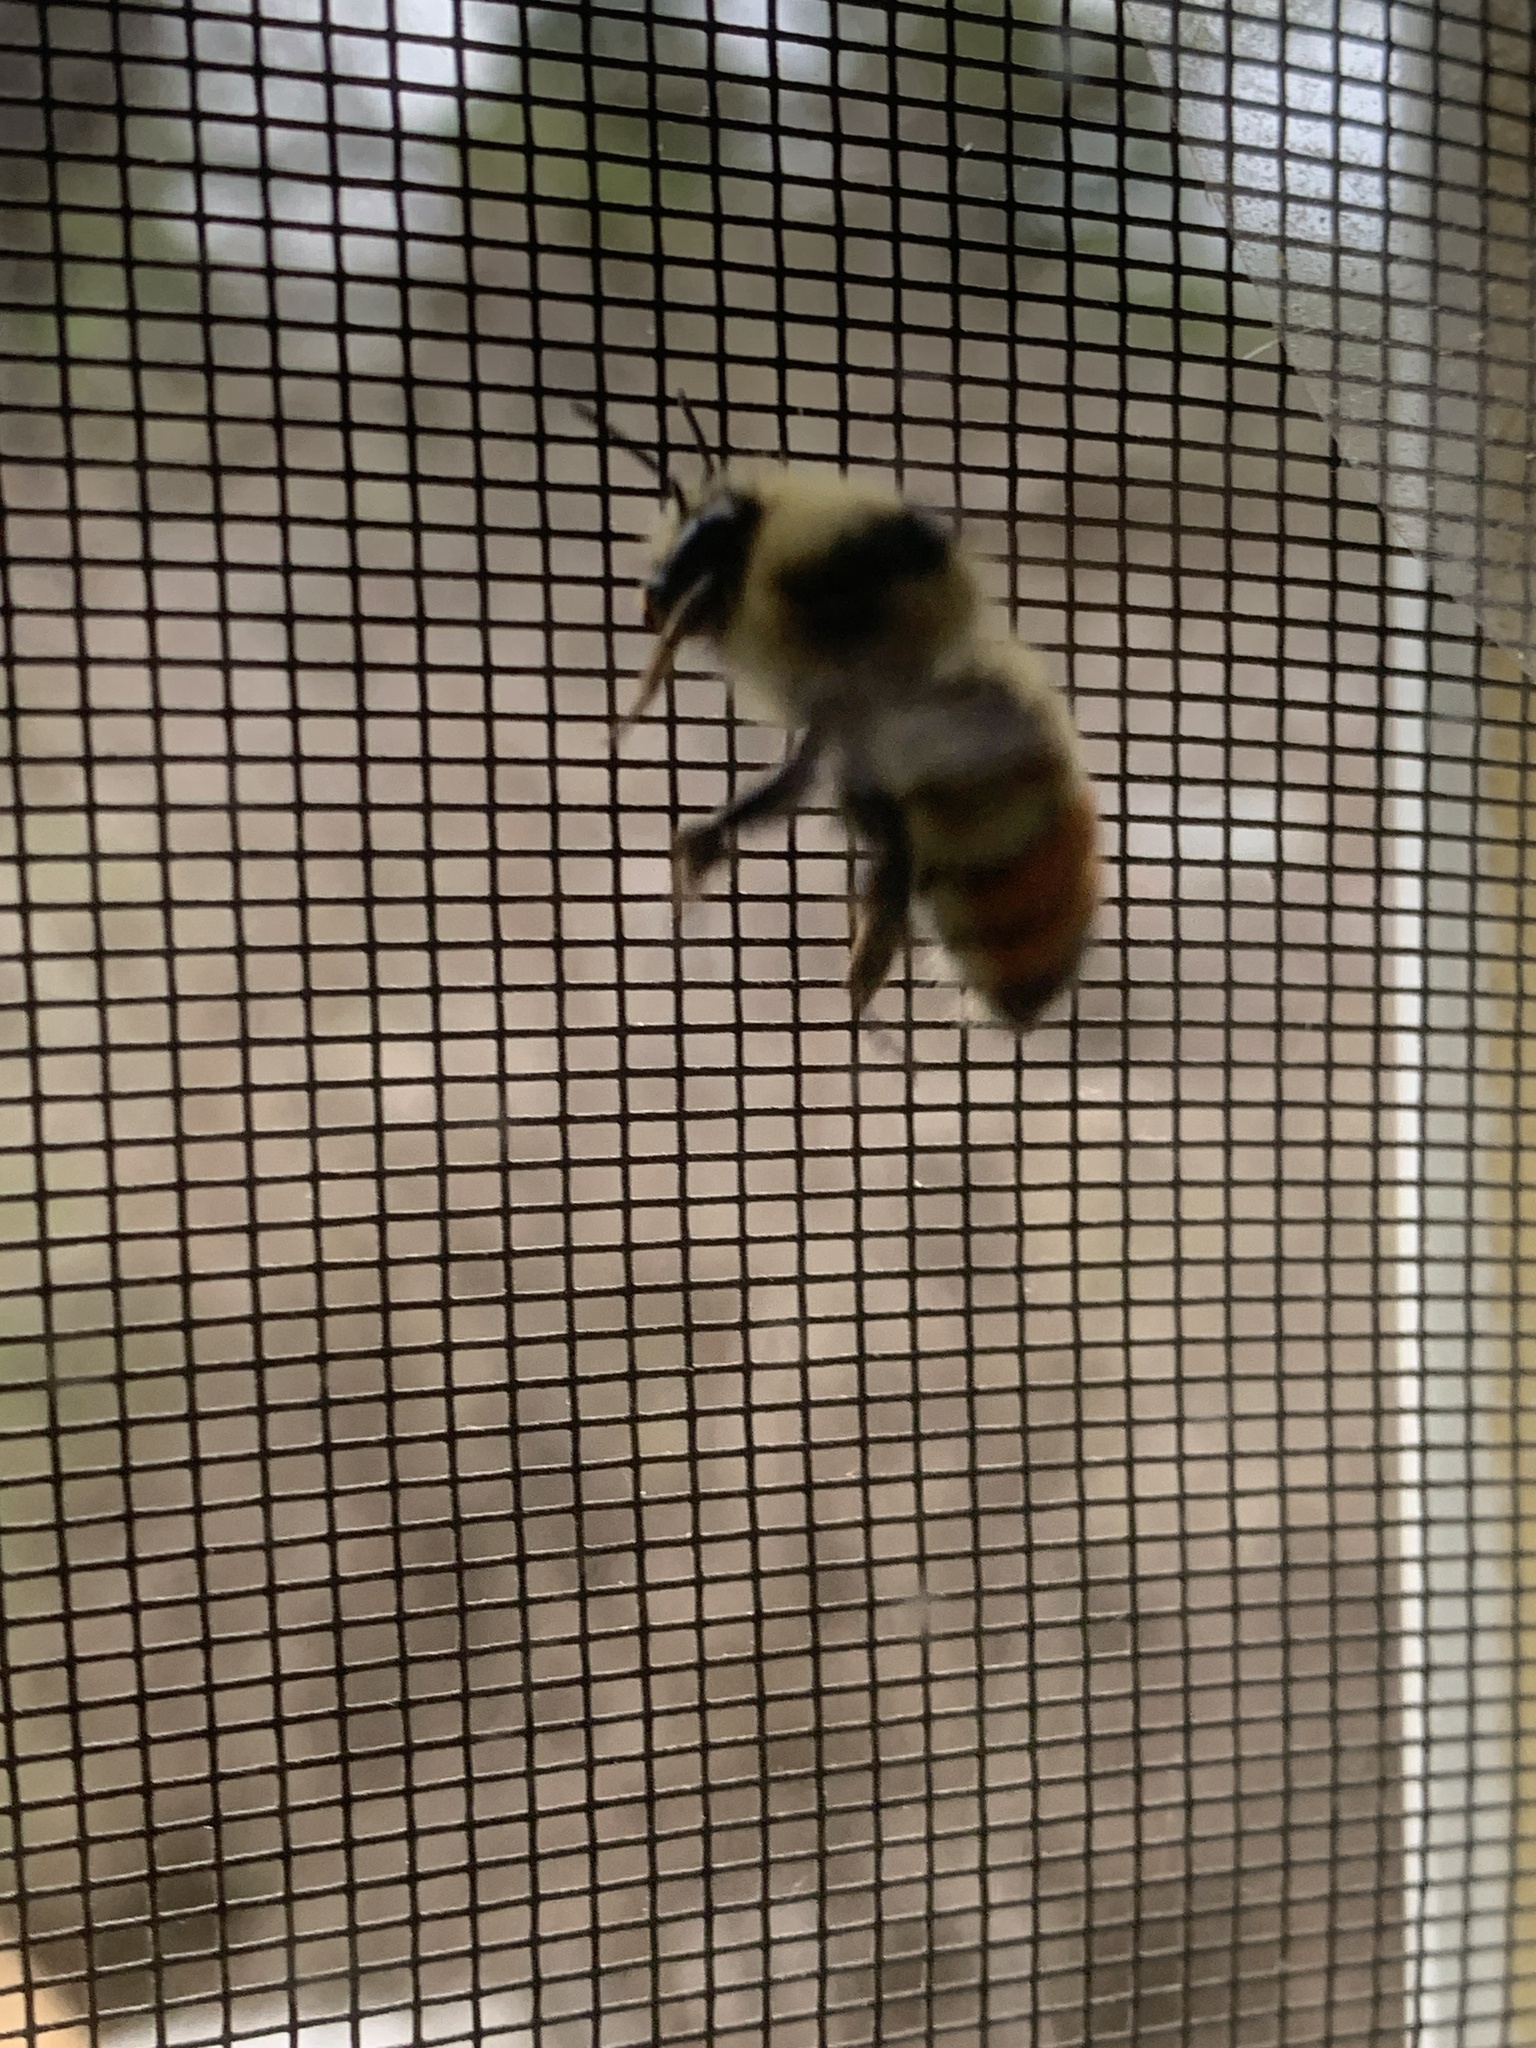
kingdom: Animalia
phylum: Arthropoda
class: Insecta
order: Hymenoptera
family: Apidae
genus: Bombus
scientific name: Bombus centralis
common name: Central bumble bee
